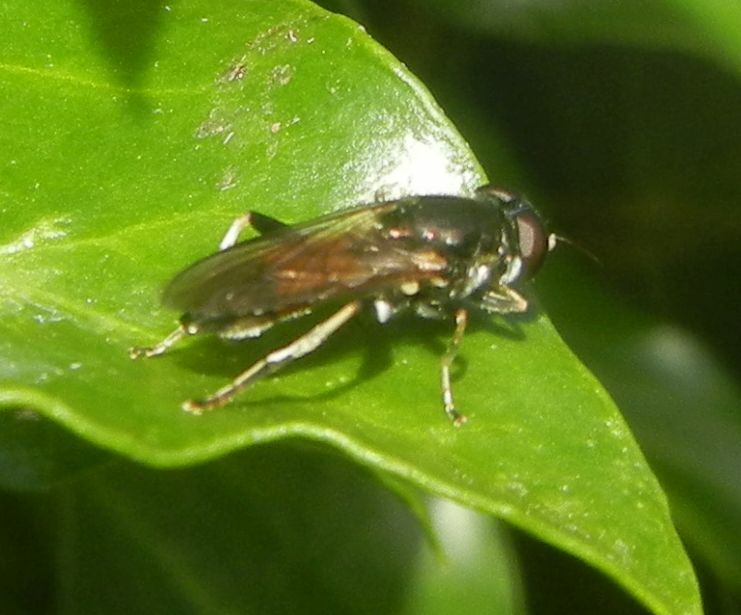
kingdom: Animalia
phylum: Arthropoda
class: Insecta
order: Diptera
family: Syrphidae
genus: Xylota
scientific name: Xylota segnis
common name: Brown-toed forest fly
